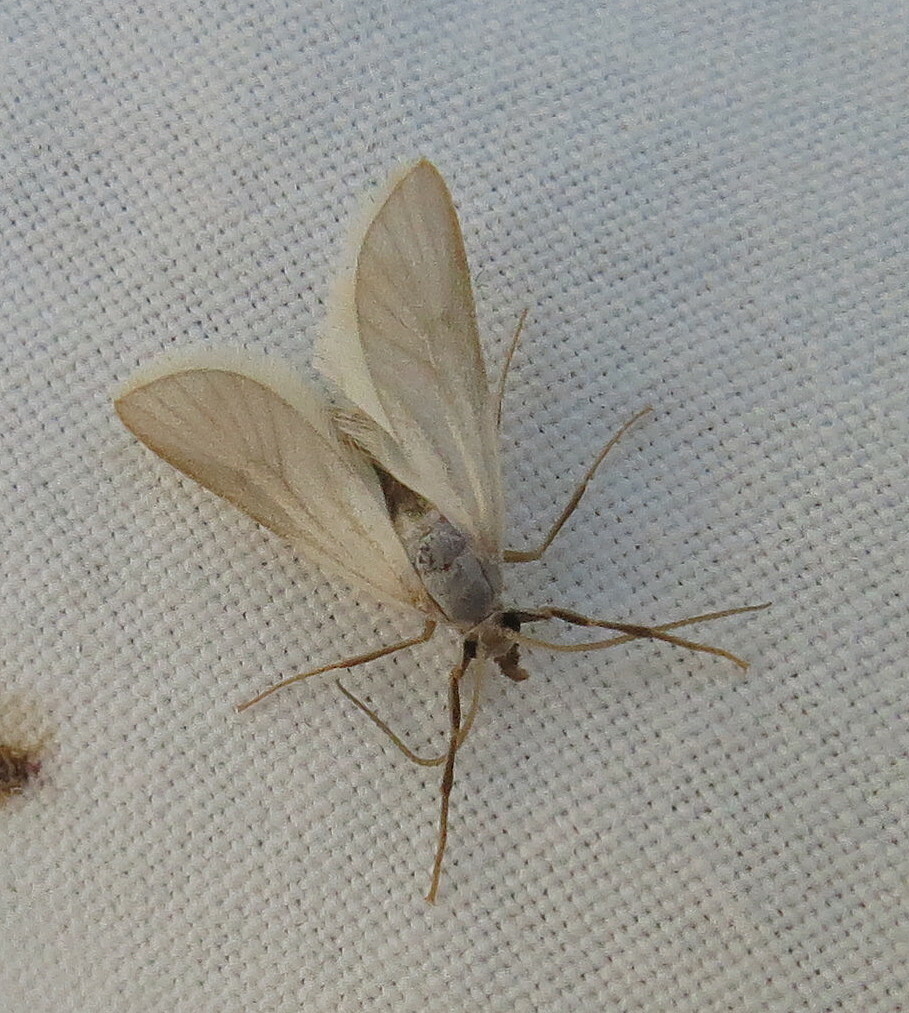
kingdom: Animalia
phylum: Arthropoda
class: Insecta
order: Lepidoptera
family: Crambidae
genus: Acentria
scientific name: Acentria ephemerella
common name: European water moth
